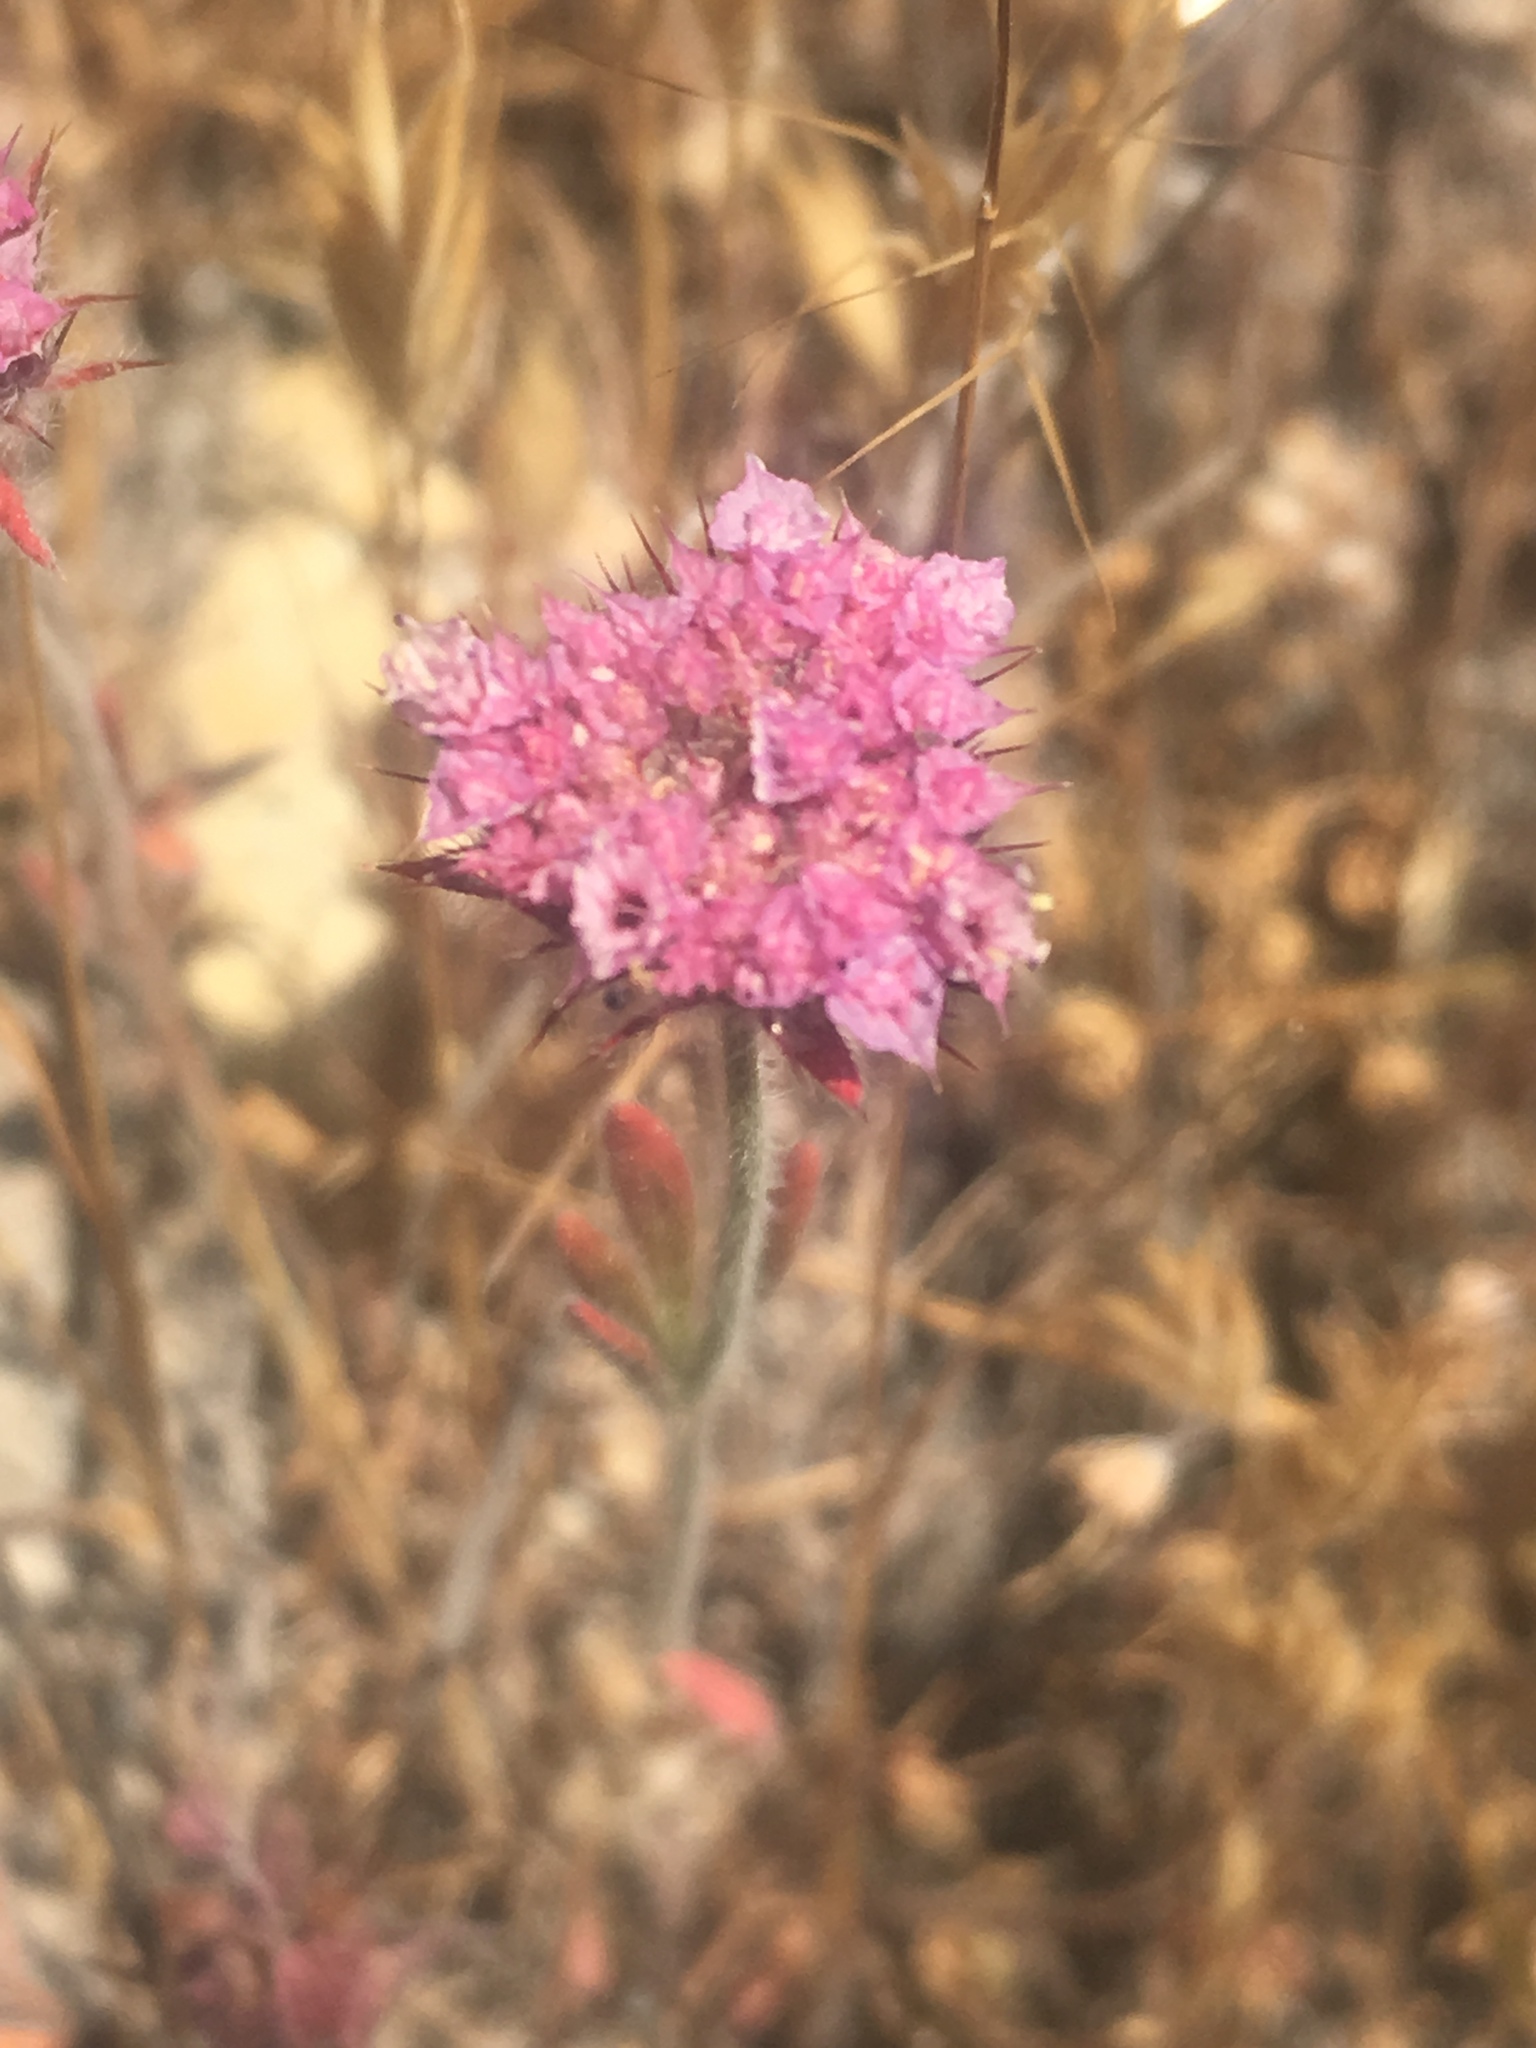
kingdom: Plantae
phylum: Tracheophyta
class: Magnoliopsida
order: Caryophyllales
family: Polygonaceae
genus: Chorizanthe
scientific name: Chorizanthe douglasii
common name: Douglas's spineflower
